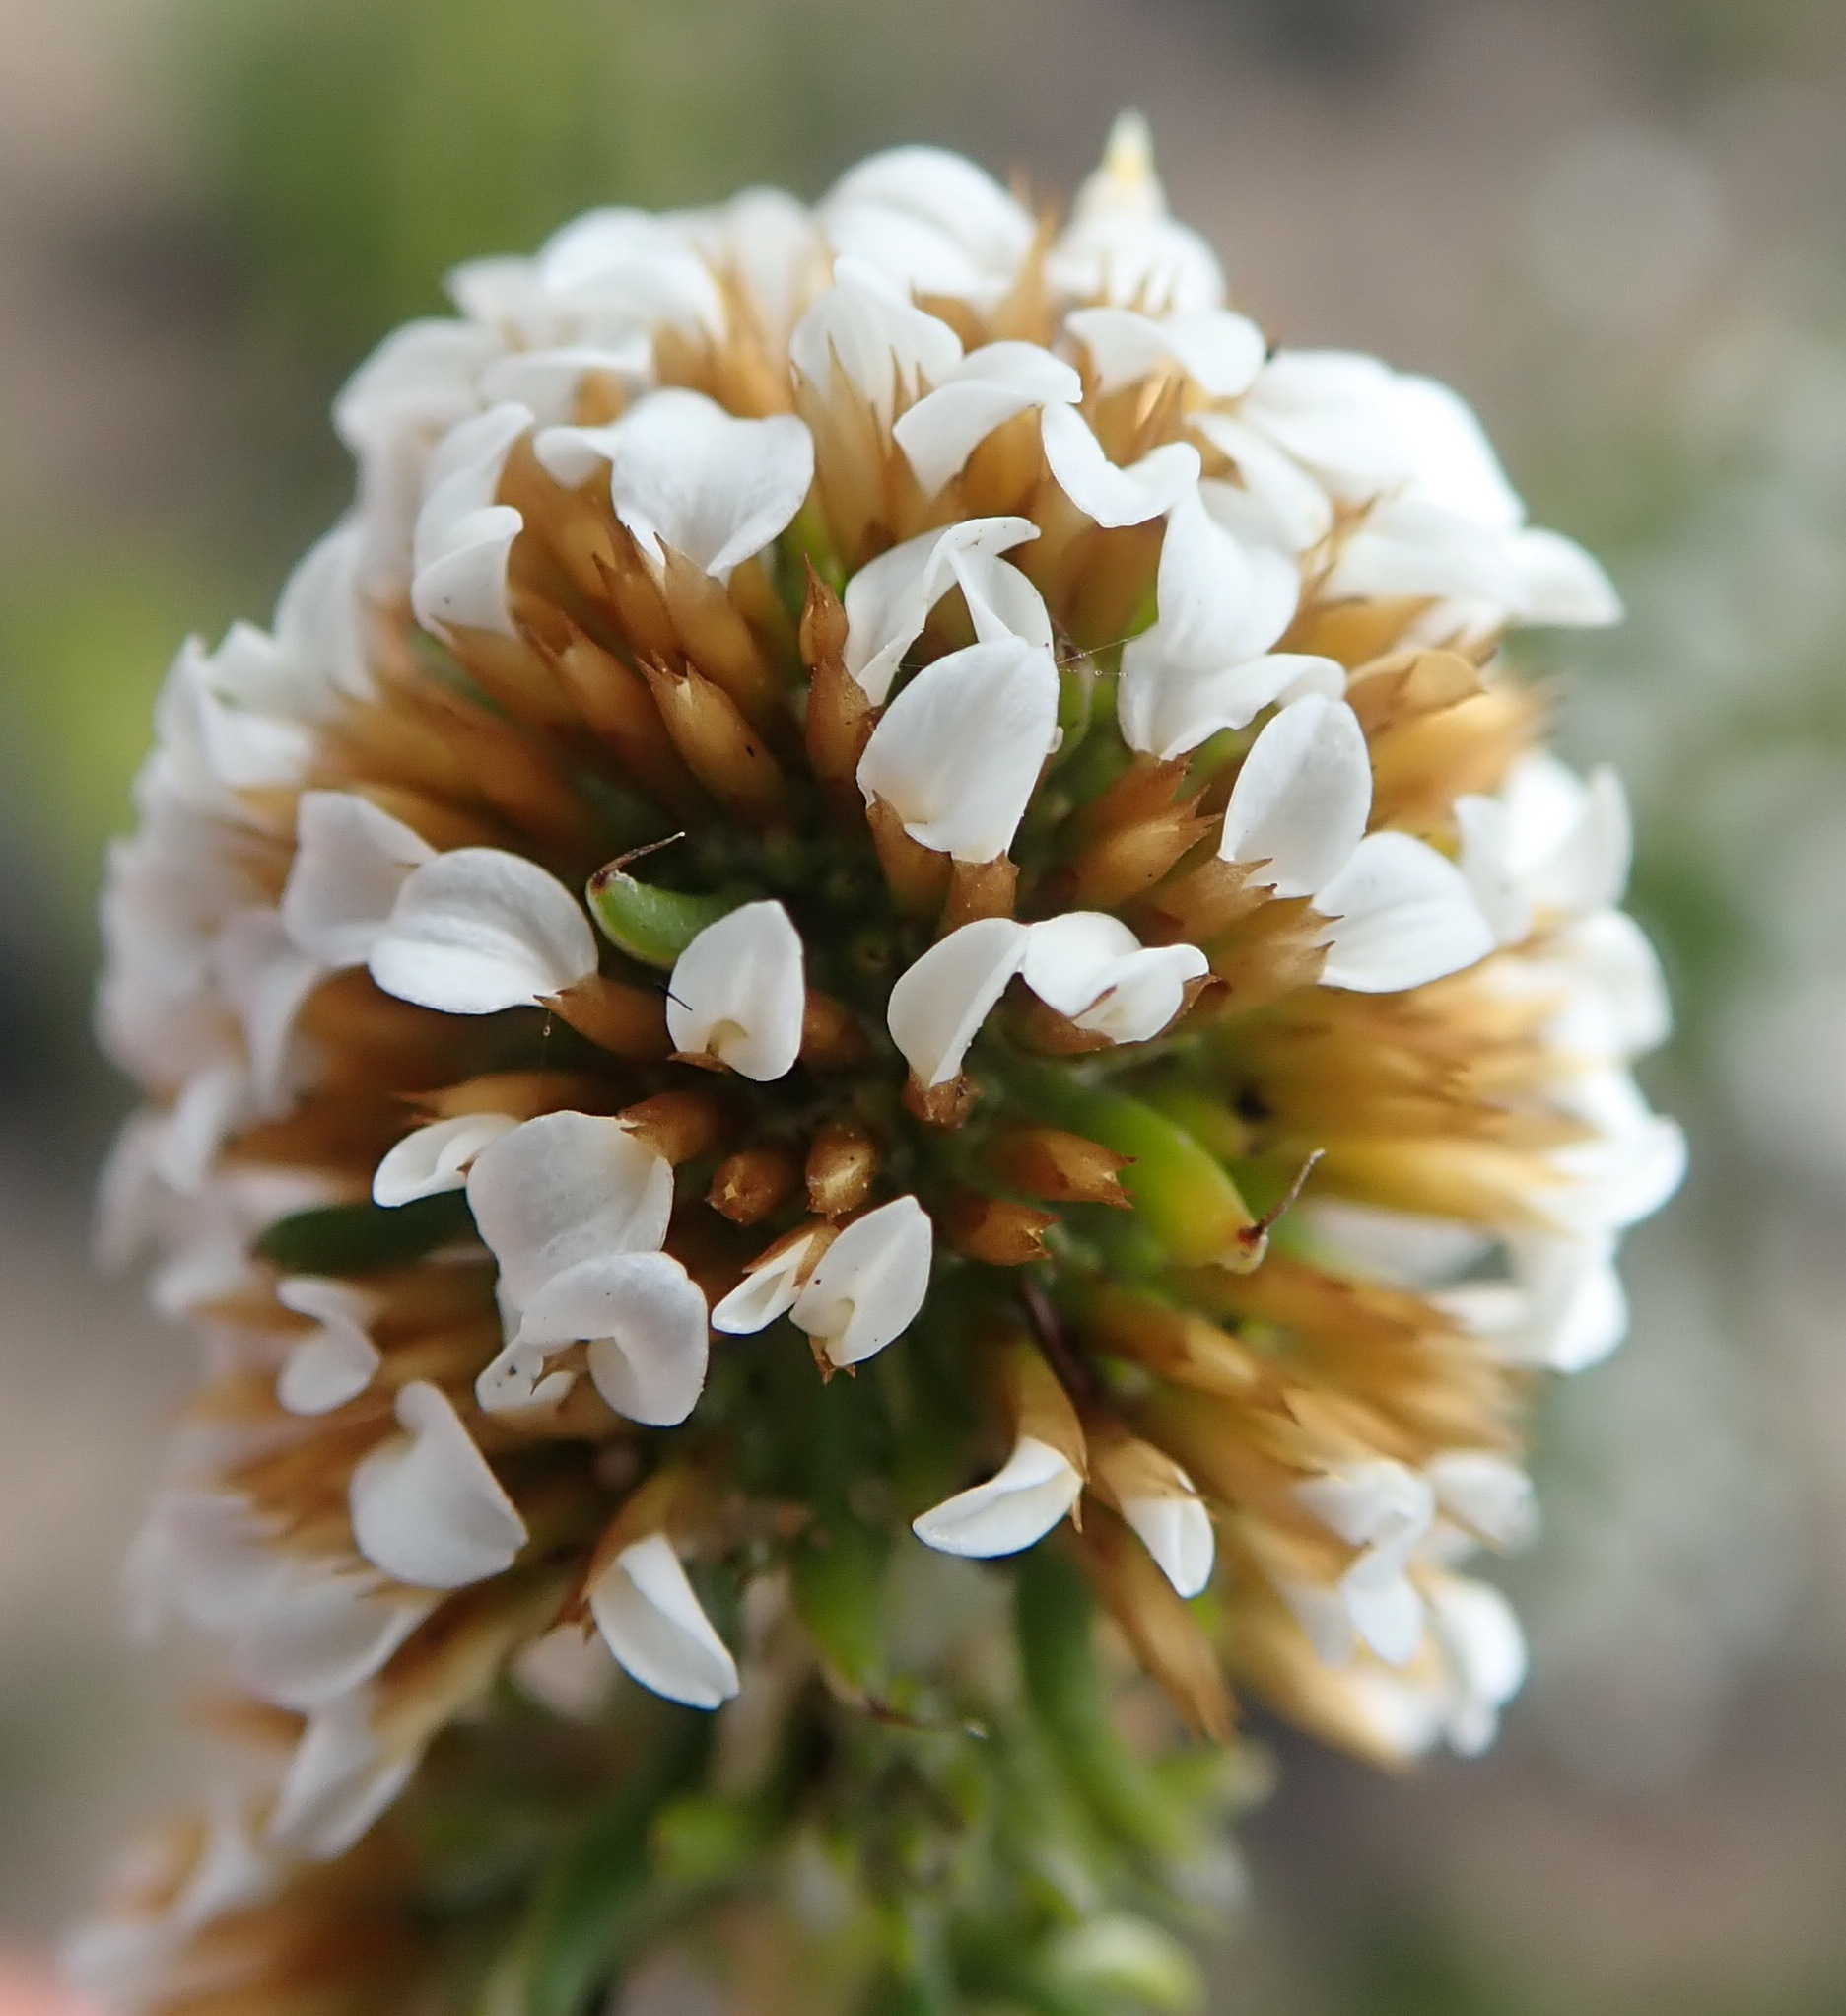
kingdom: Plantae
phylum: Tracheophyta
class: Magnoliopsida
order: Asterales
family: Asteraceae
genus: Disparago
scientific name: Disparago anomala
